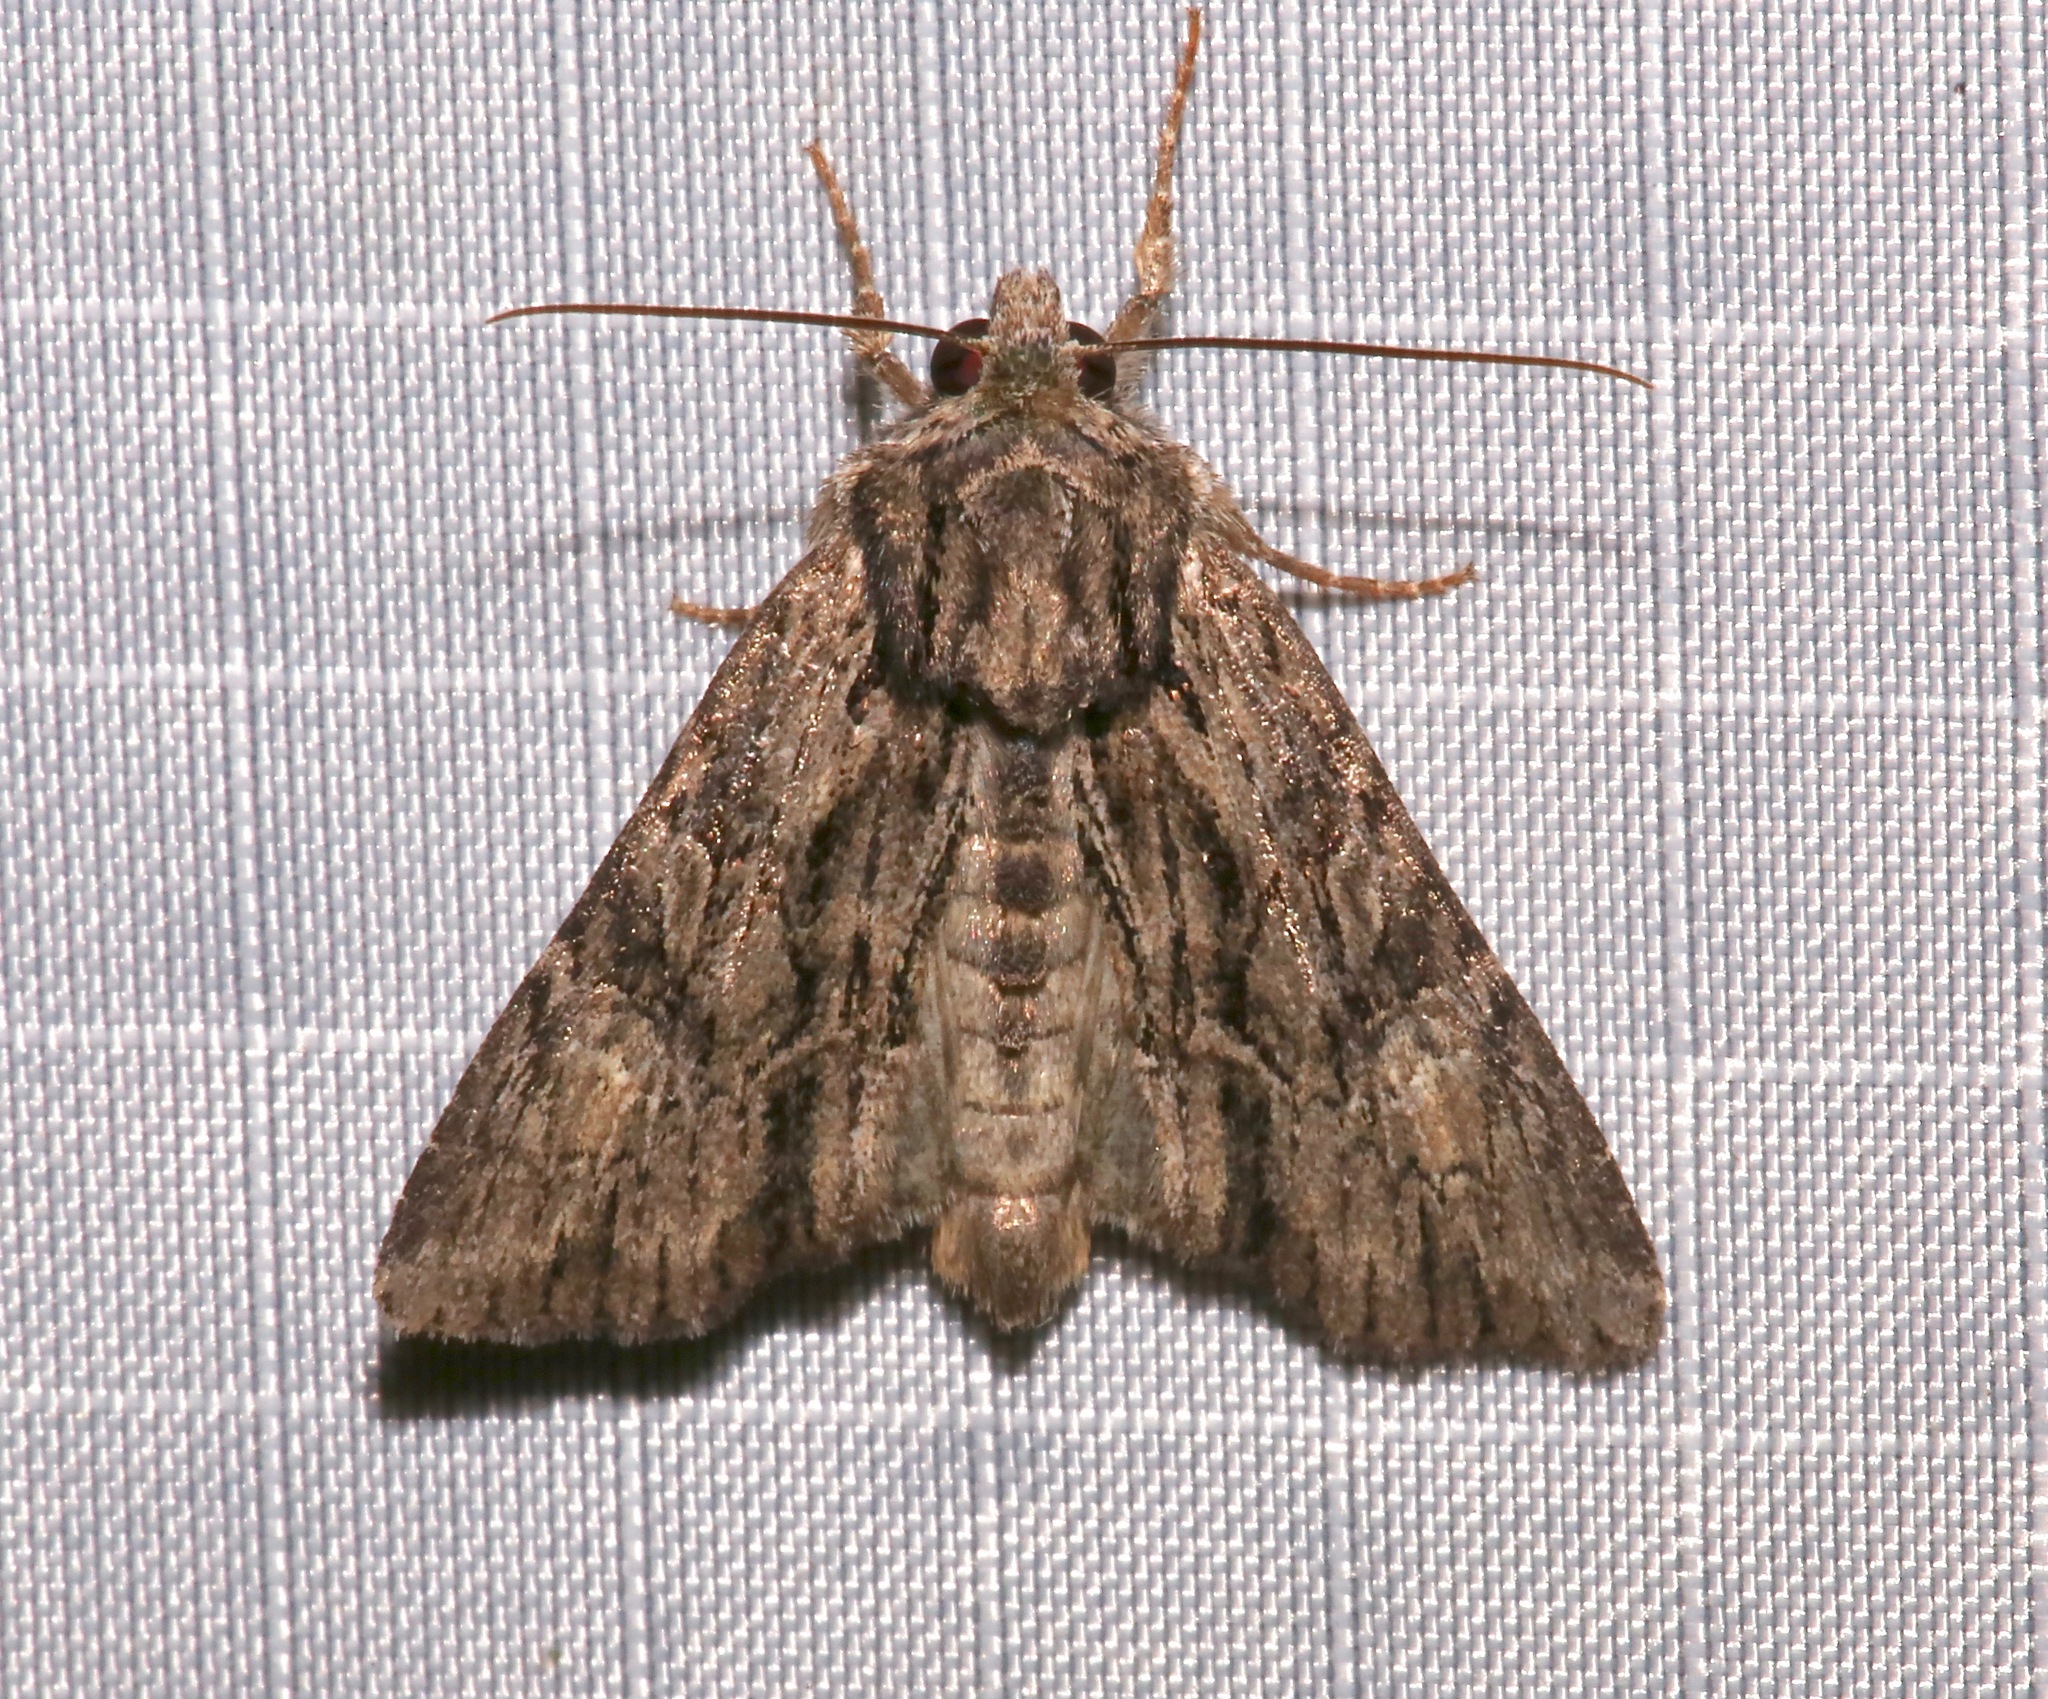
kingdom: Animalia
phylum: Arthropoda
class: Insecta
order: Lepidoptera
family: Noctuidae
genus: Apamea
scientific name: Apamea perpensa
